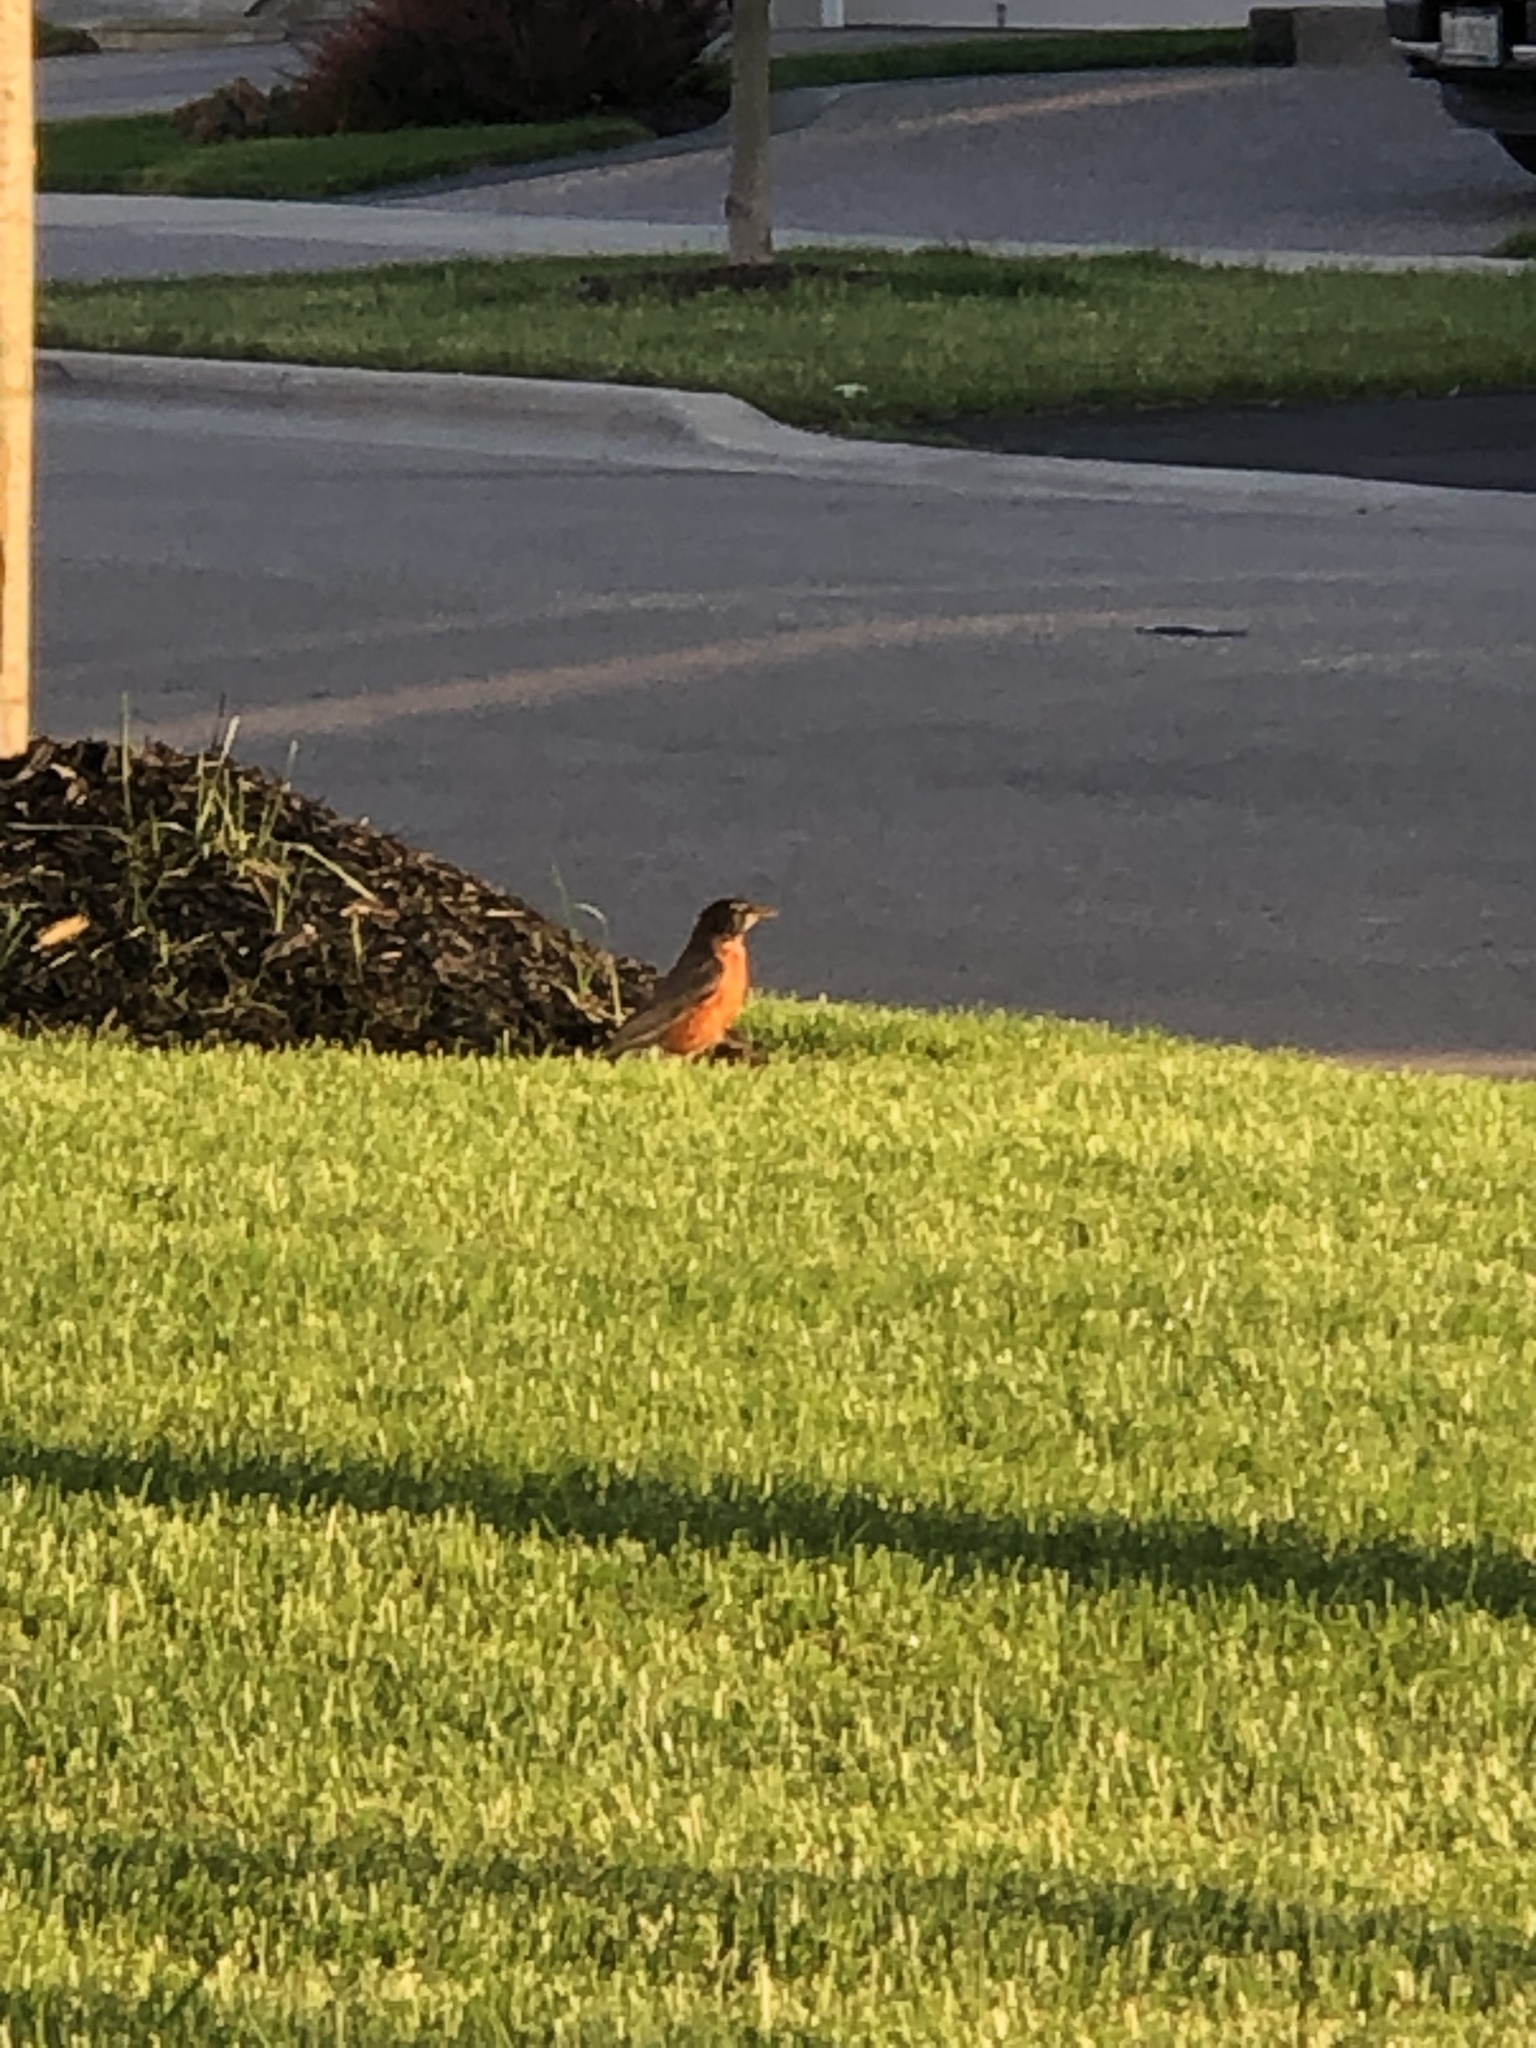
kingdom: Animalia
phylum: Chordata
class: Aves
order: Passeriformes
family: Turdidae
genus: Turdus
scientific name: Turdus migratorius
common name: American robin
